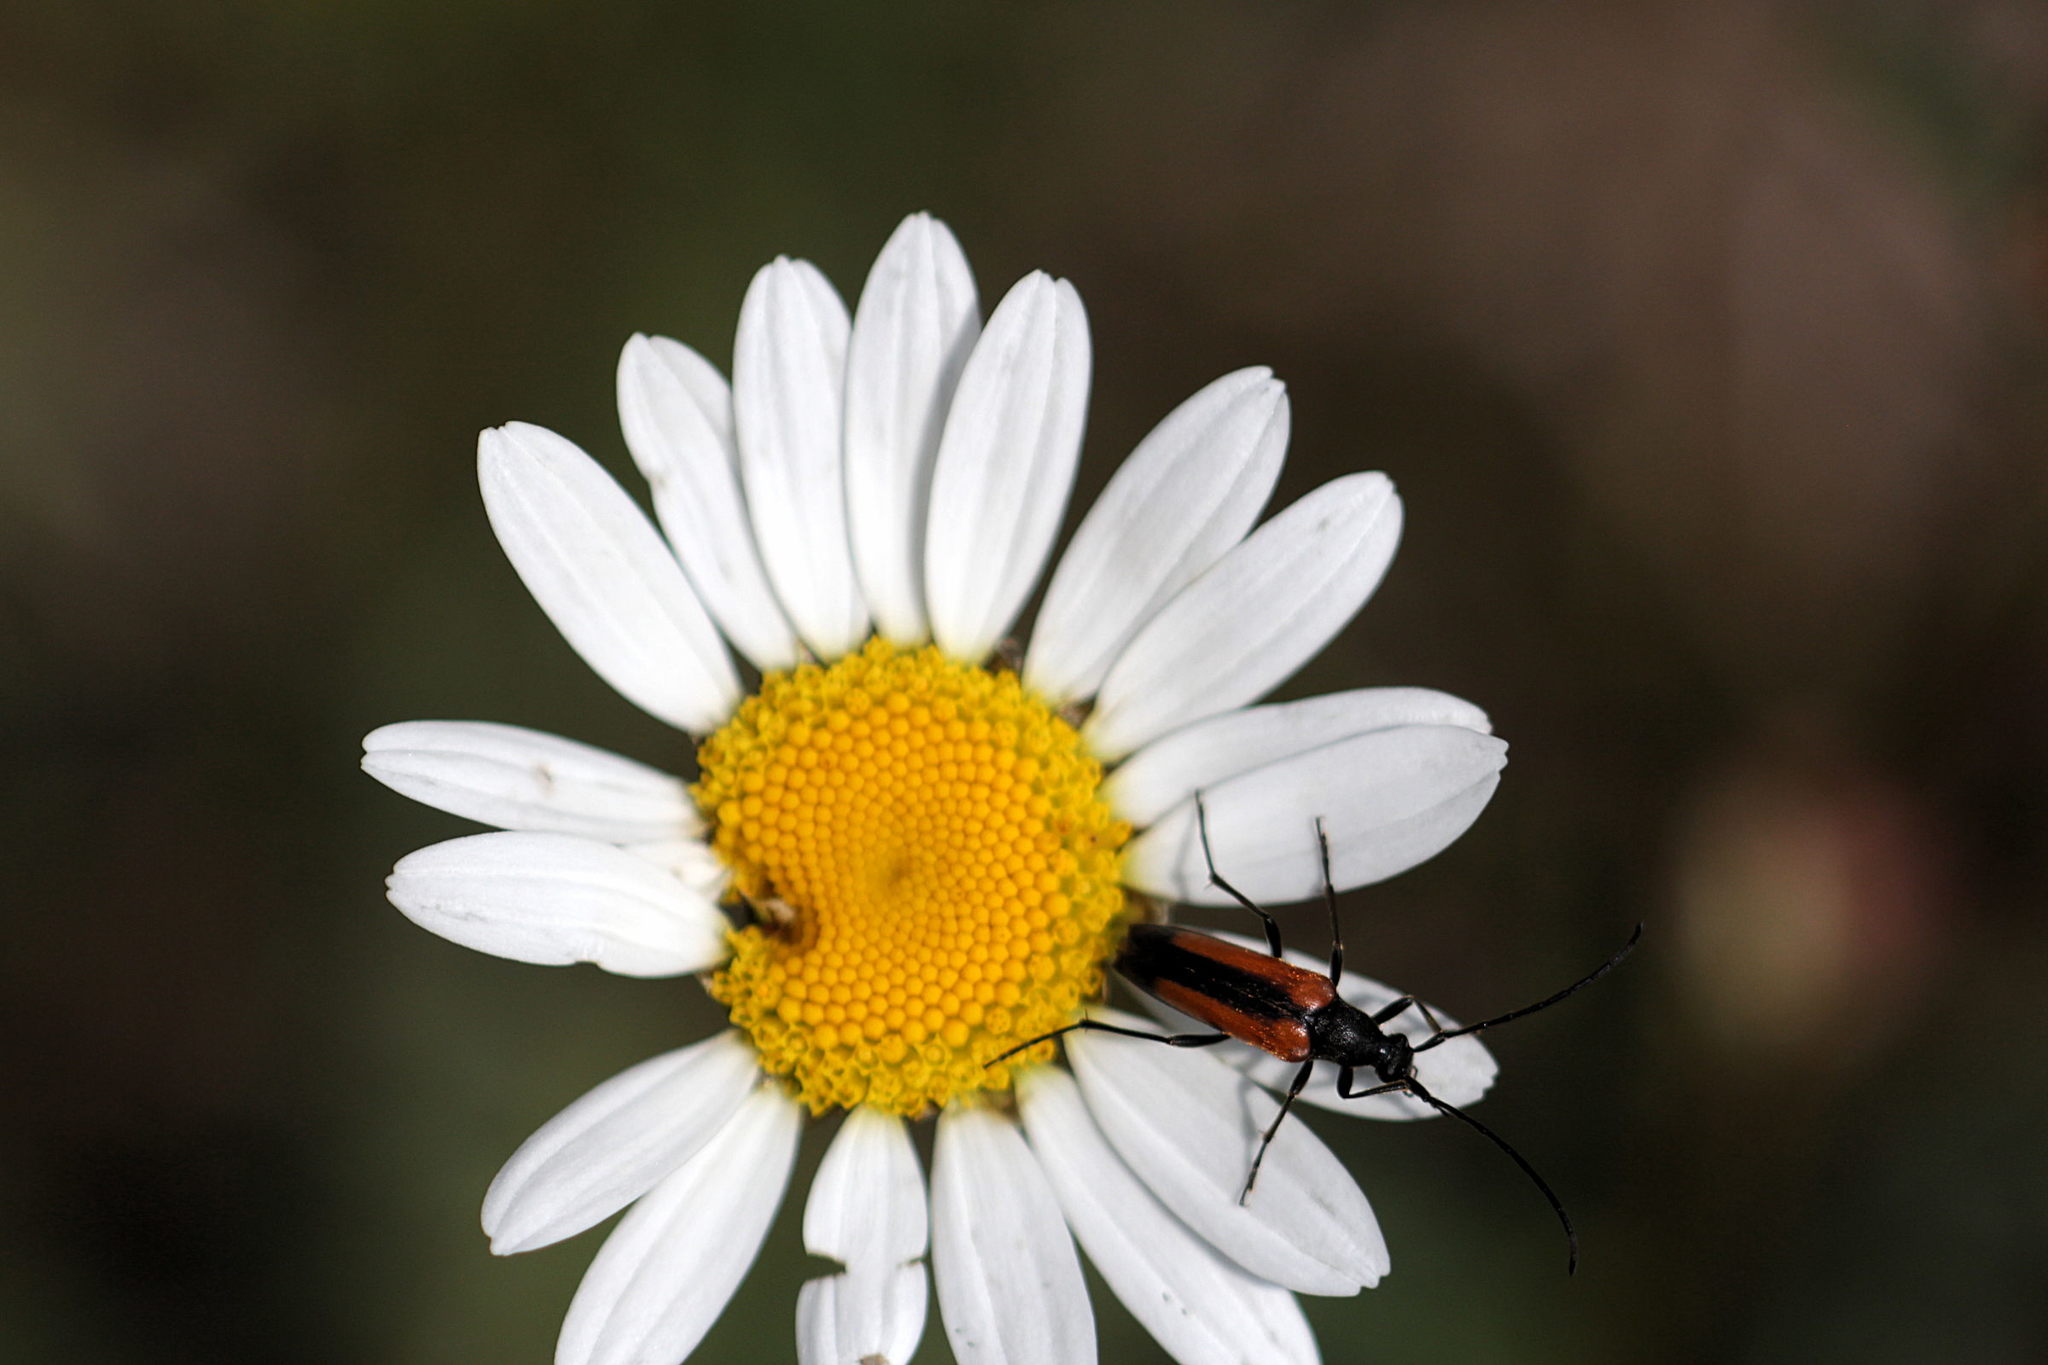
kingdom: Animalia
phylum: Arthropoda
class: Insecta
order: Coleoptera
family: Cerambycidae
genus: Stenurella
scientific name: Stenurella melanura
